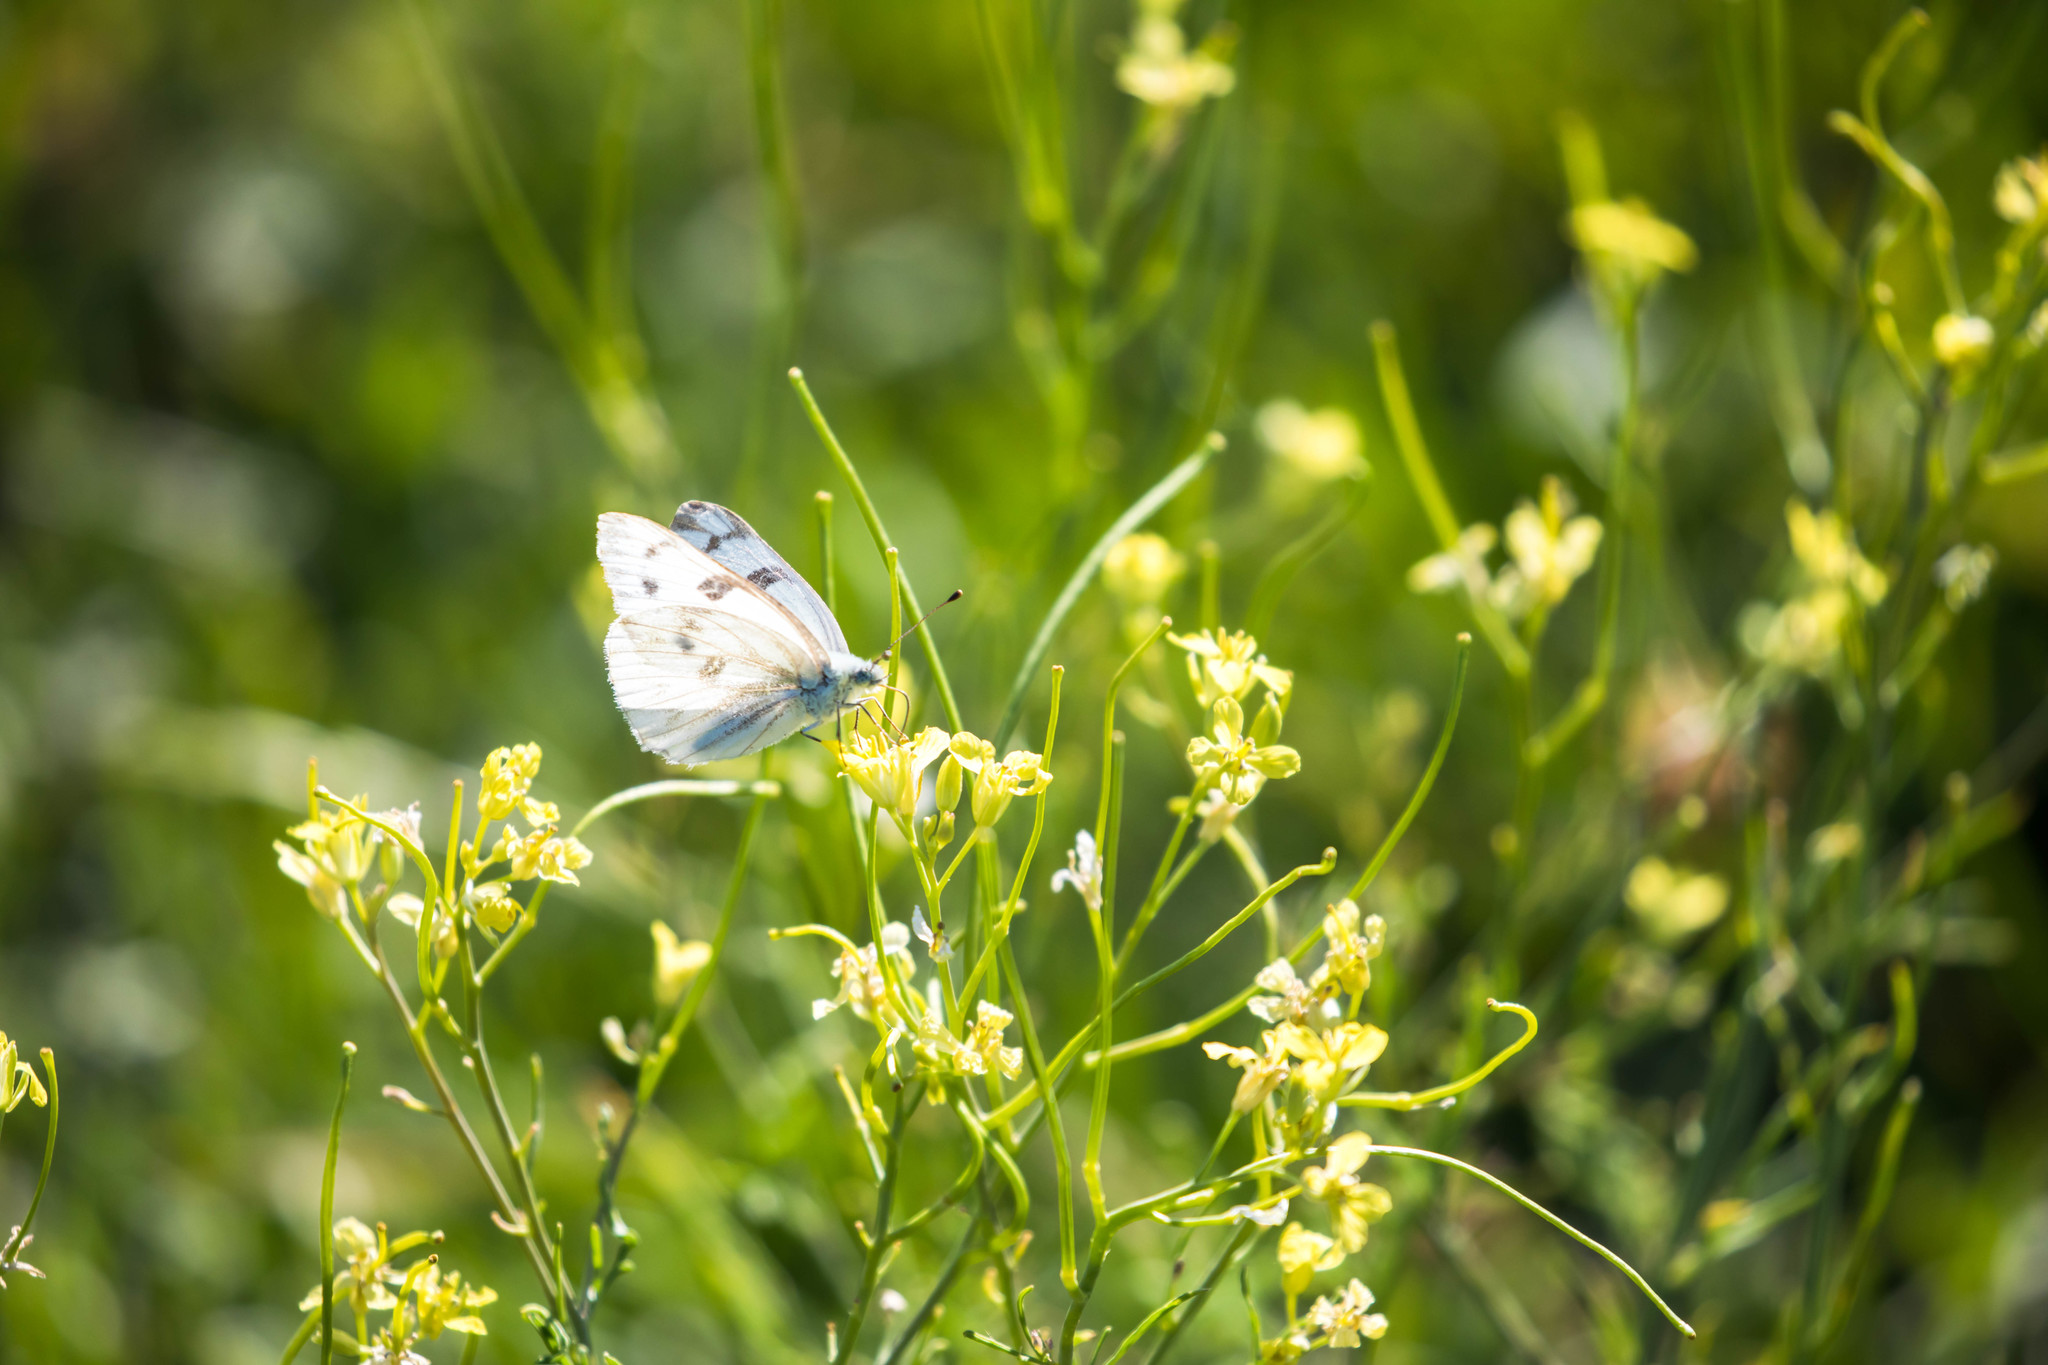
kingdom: Animalia
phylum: Arthropoda
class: Insecta
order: Lepidoptera
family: Pieridae
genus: Pontia
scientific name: Pontia occidentalis
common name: Western white
